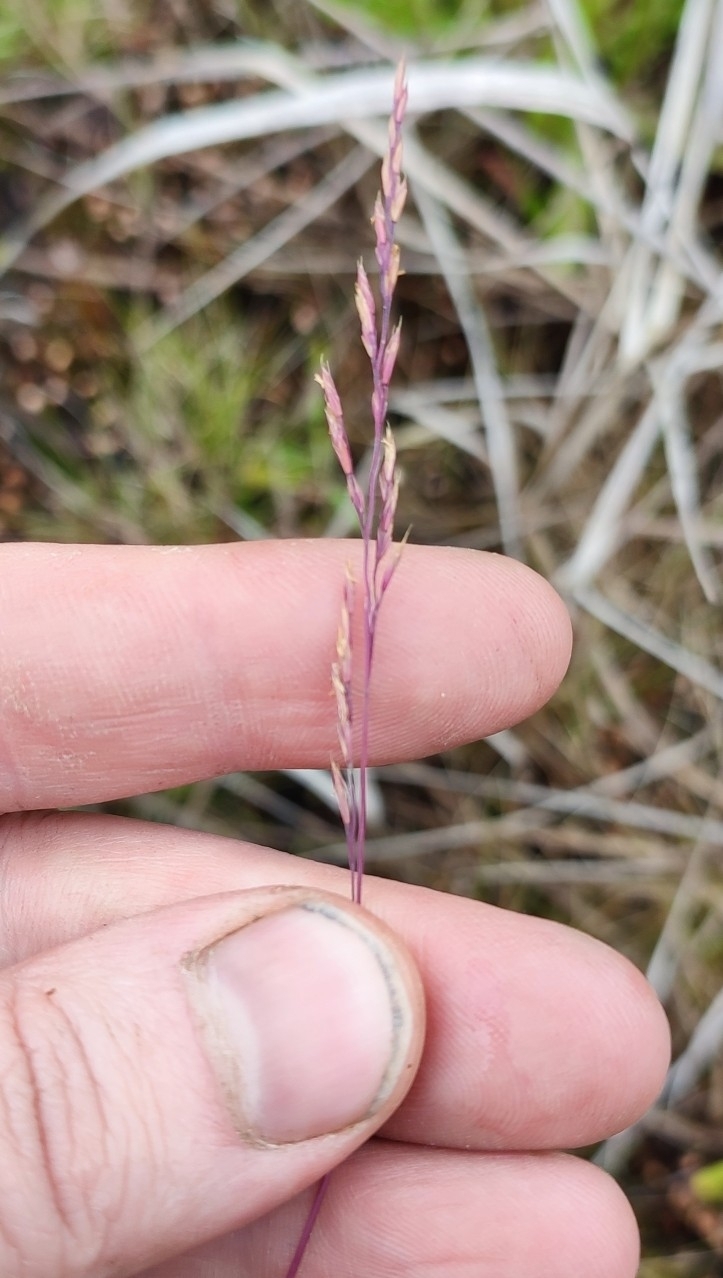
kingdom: Plantae
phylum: Tracheophyta
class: Liliopsida
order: Poales
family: Poaceae
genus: Festuca
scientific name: Festuca rubra
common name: Red fescue
